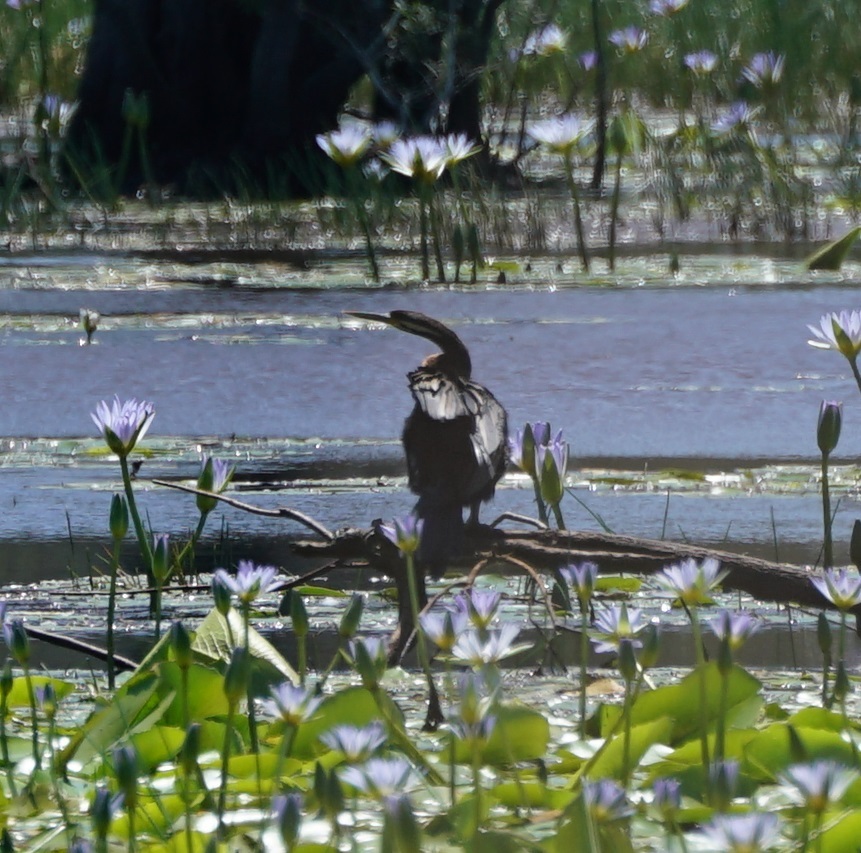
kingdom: Animalia
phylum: Chordata
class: Aves
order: Suliformes
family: Anhingidae
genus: Anhinga
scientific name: Anhinga novaehollandiae
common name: Australasian darter
